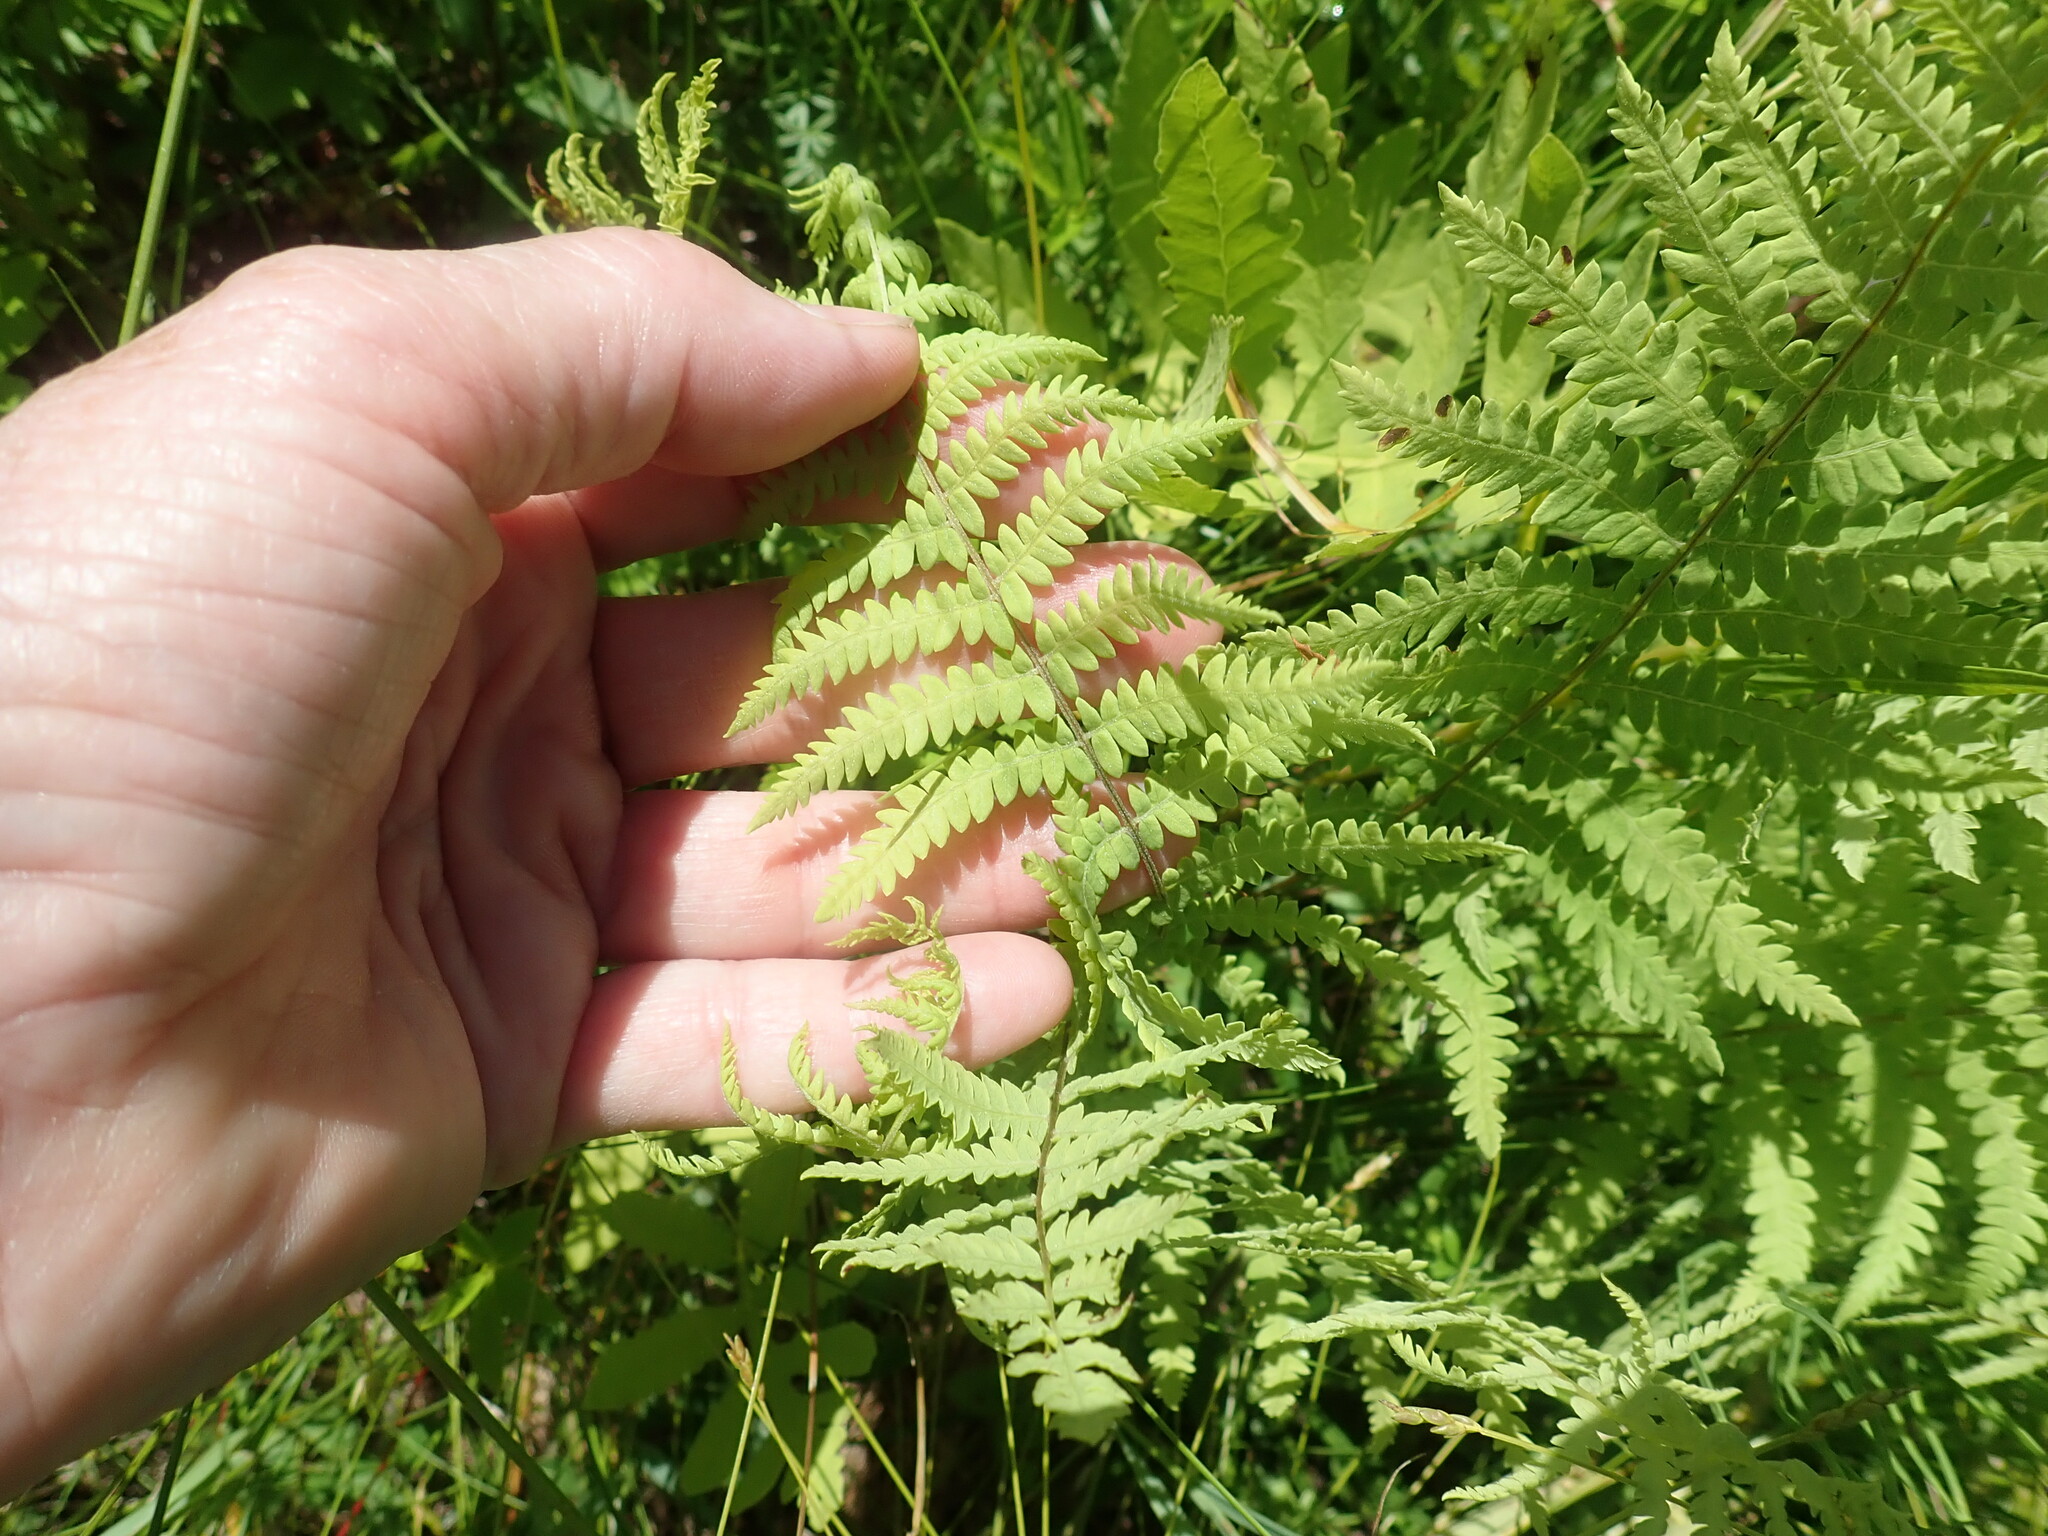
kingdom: Plantae
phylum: Tracheophyta
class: Polypodiopsida
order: Polypodiales
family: Thelypteridaceae
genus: Thelypteris
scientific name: Thelypteris palustris
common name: Marsh fern
